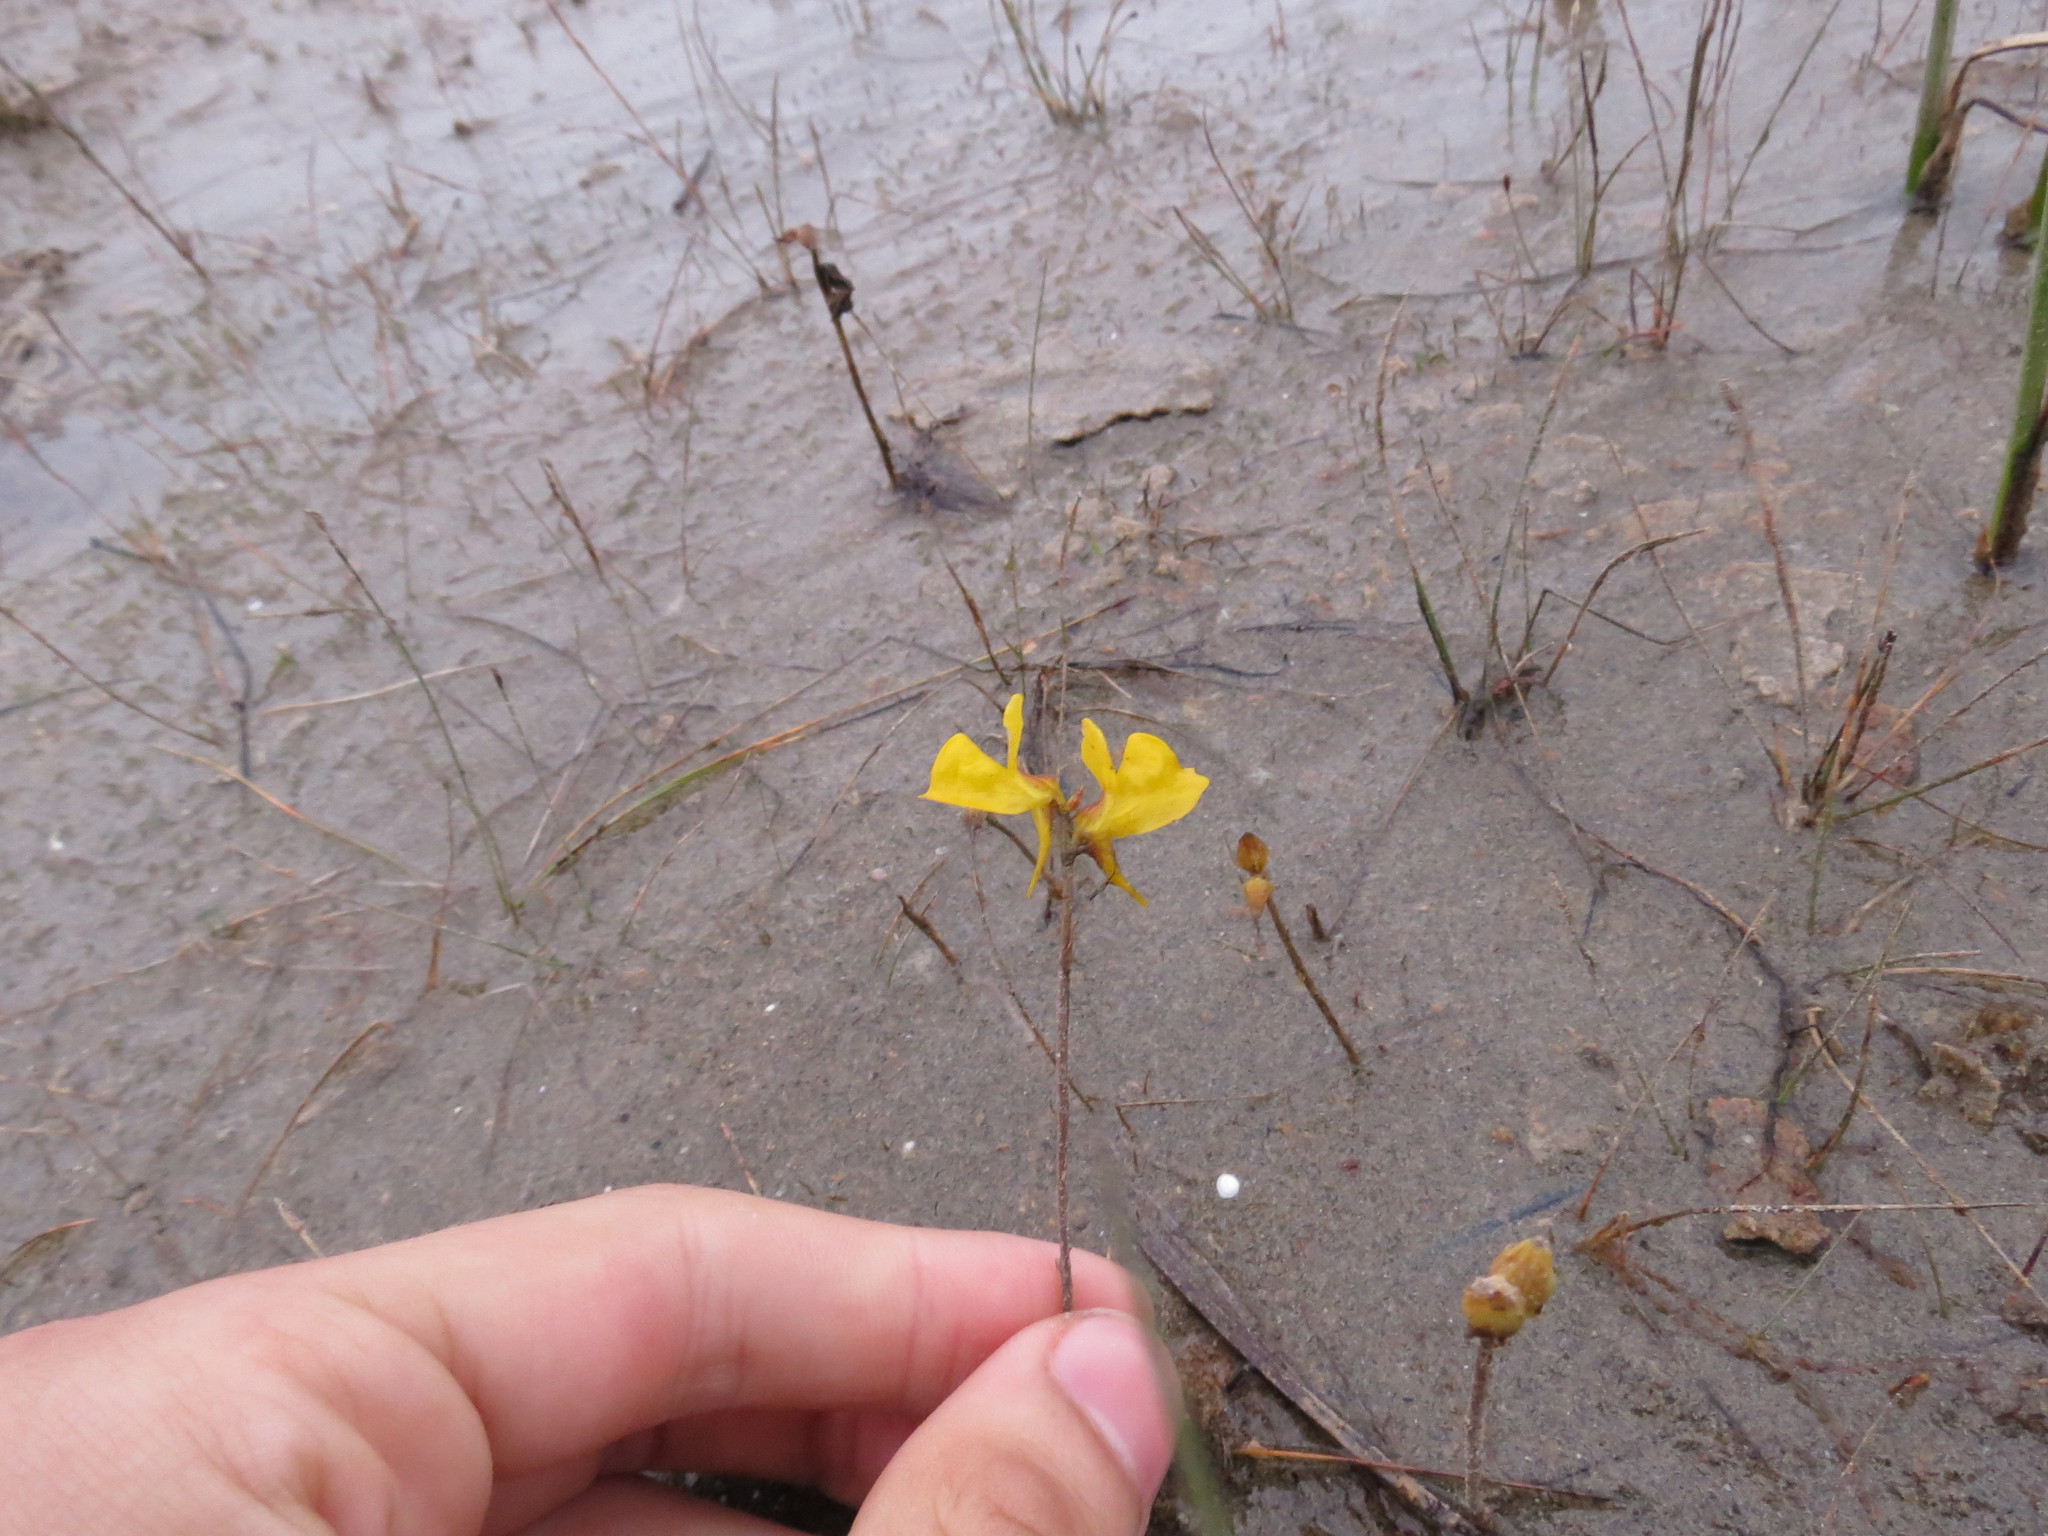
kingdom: Plantae
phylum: Tracheophyta
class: Magnoliopsida
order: Lamiales
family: Lentibulariaceae
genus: Utricularia
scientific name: Utricularia cornuta
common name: Horned bladderwort
